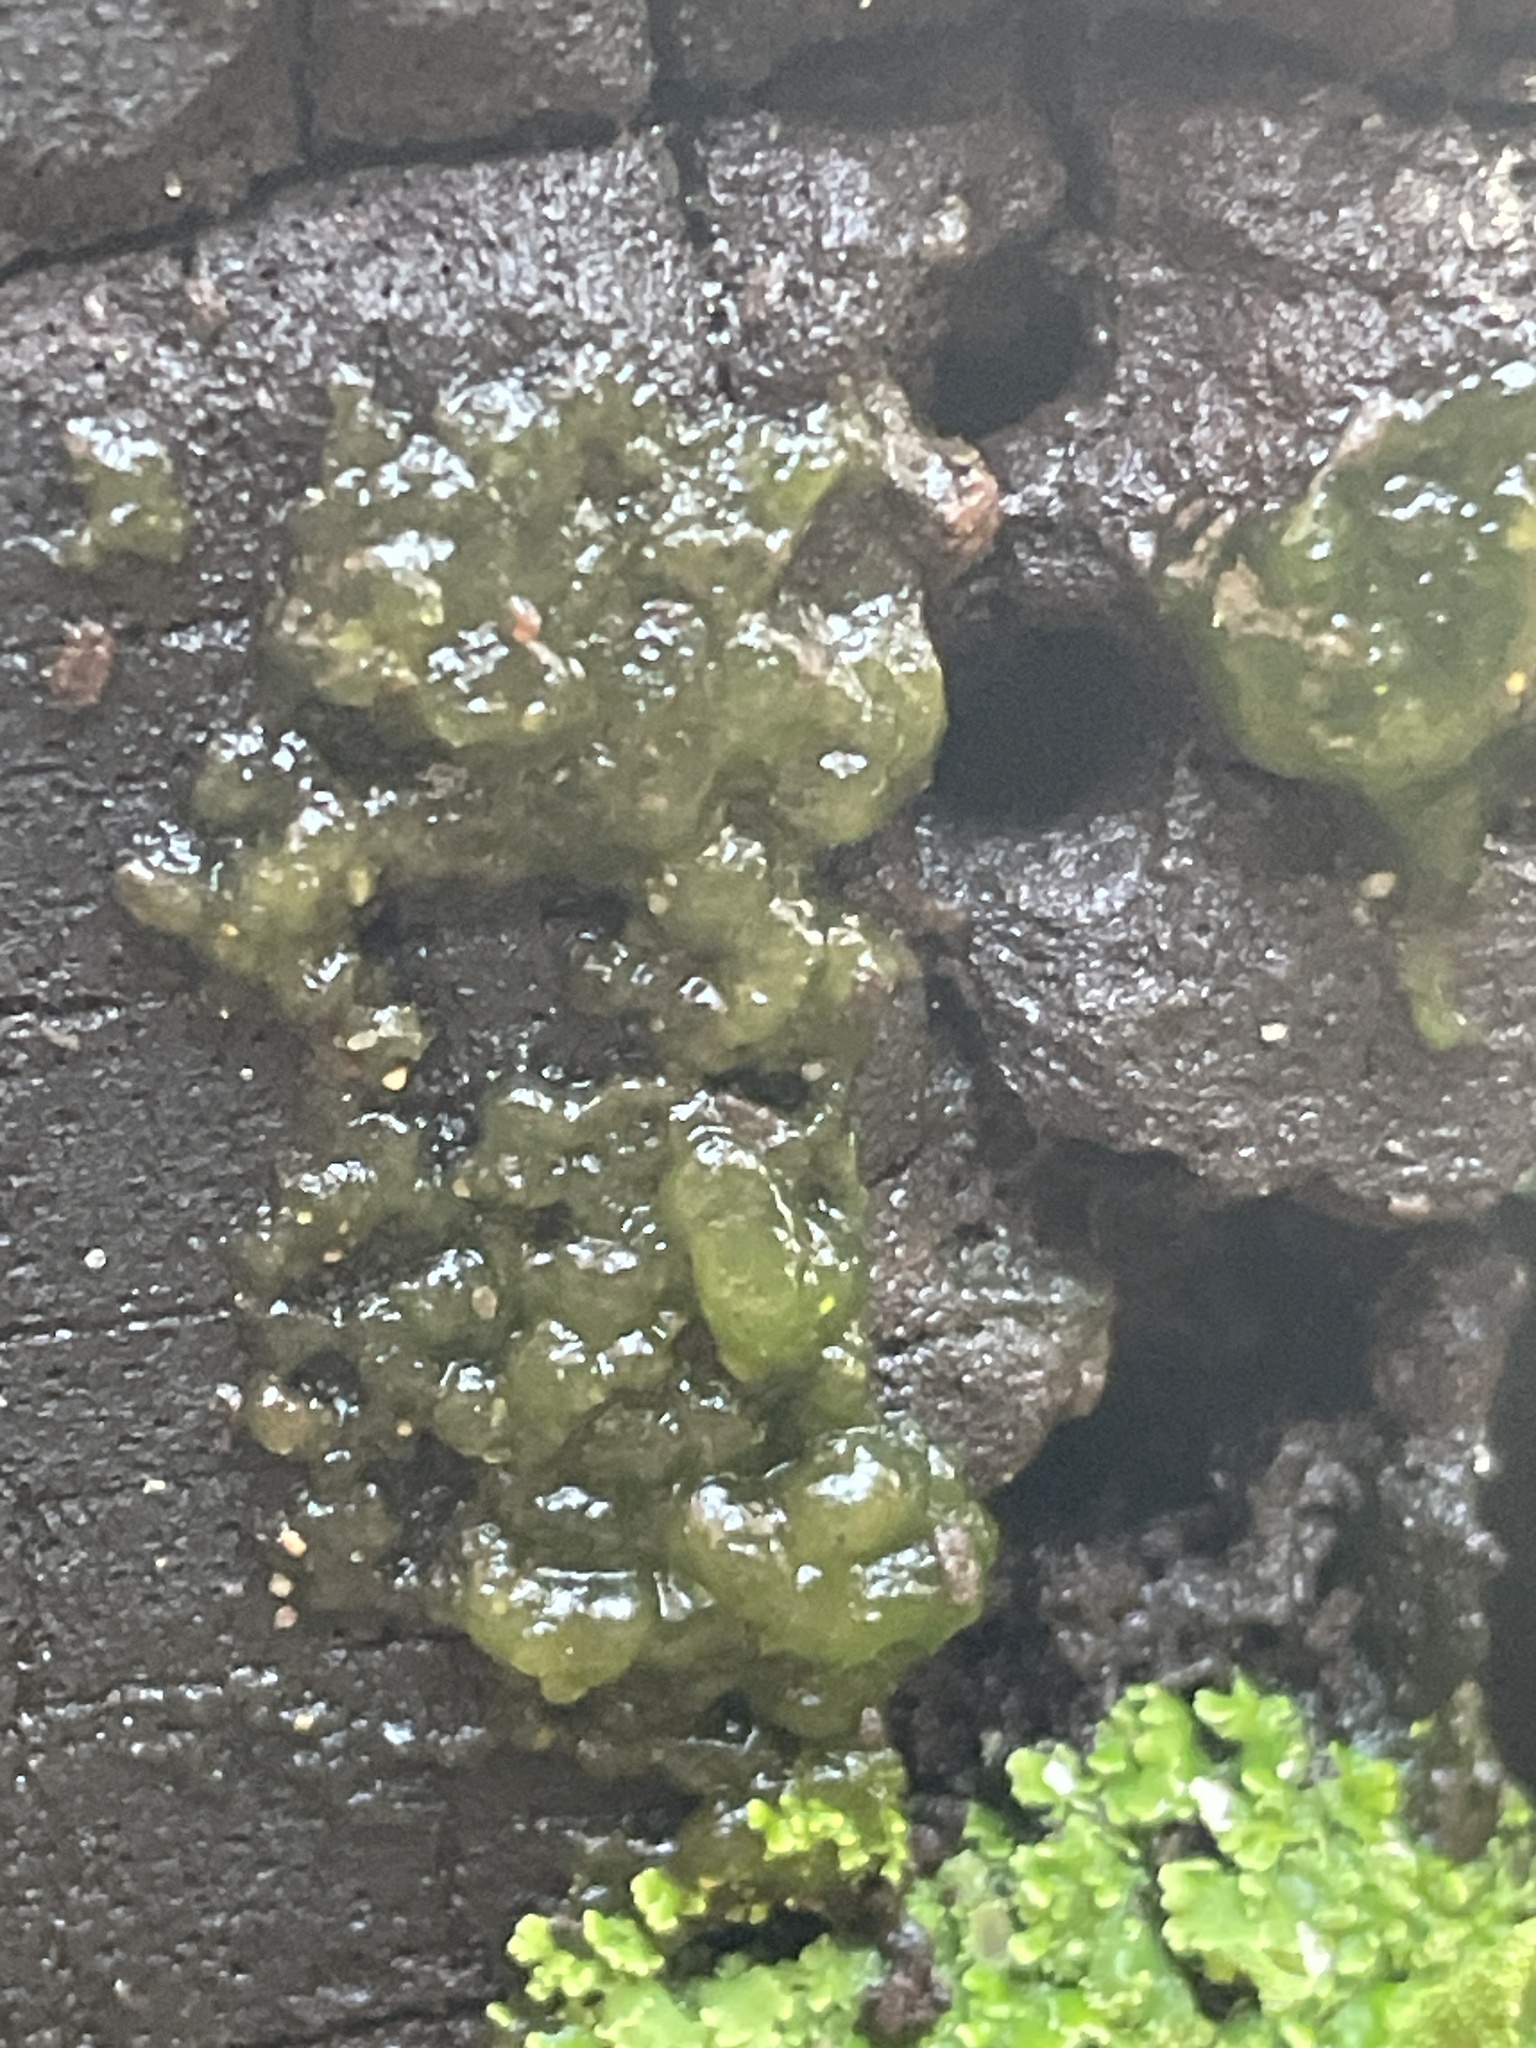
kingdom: Bacteria
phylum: Cyanobacteria
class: Cyanobacteriia
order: Cyanobacteriales
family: Nostocaceae
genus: Nostoc
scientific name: Nostoc commune
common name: Star jelly
